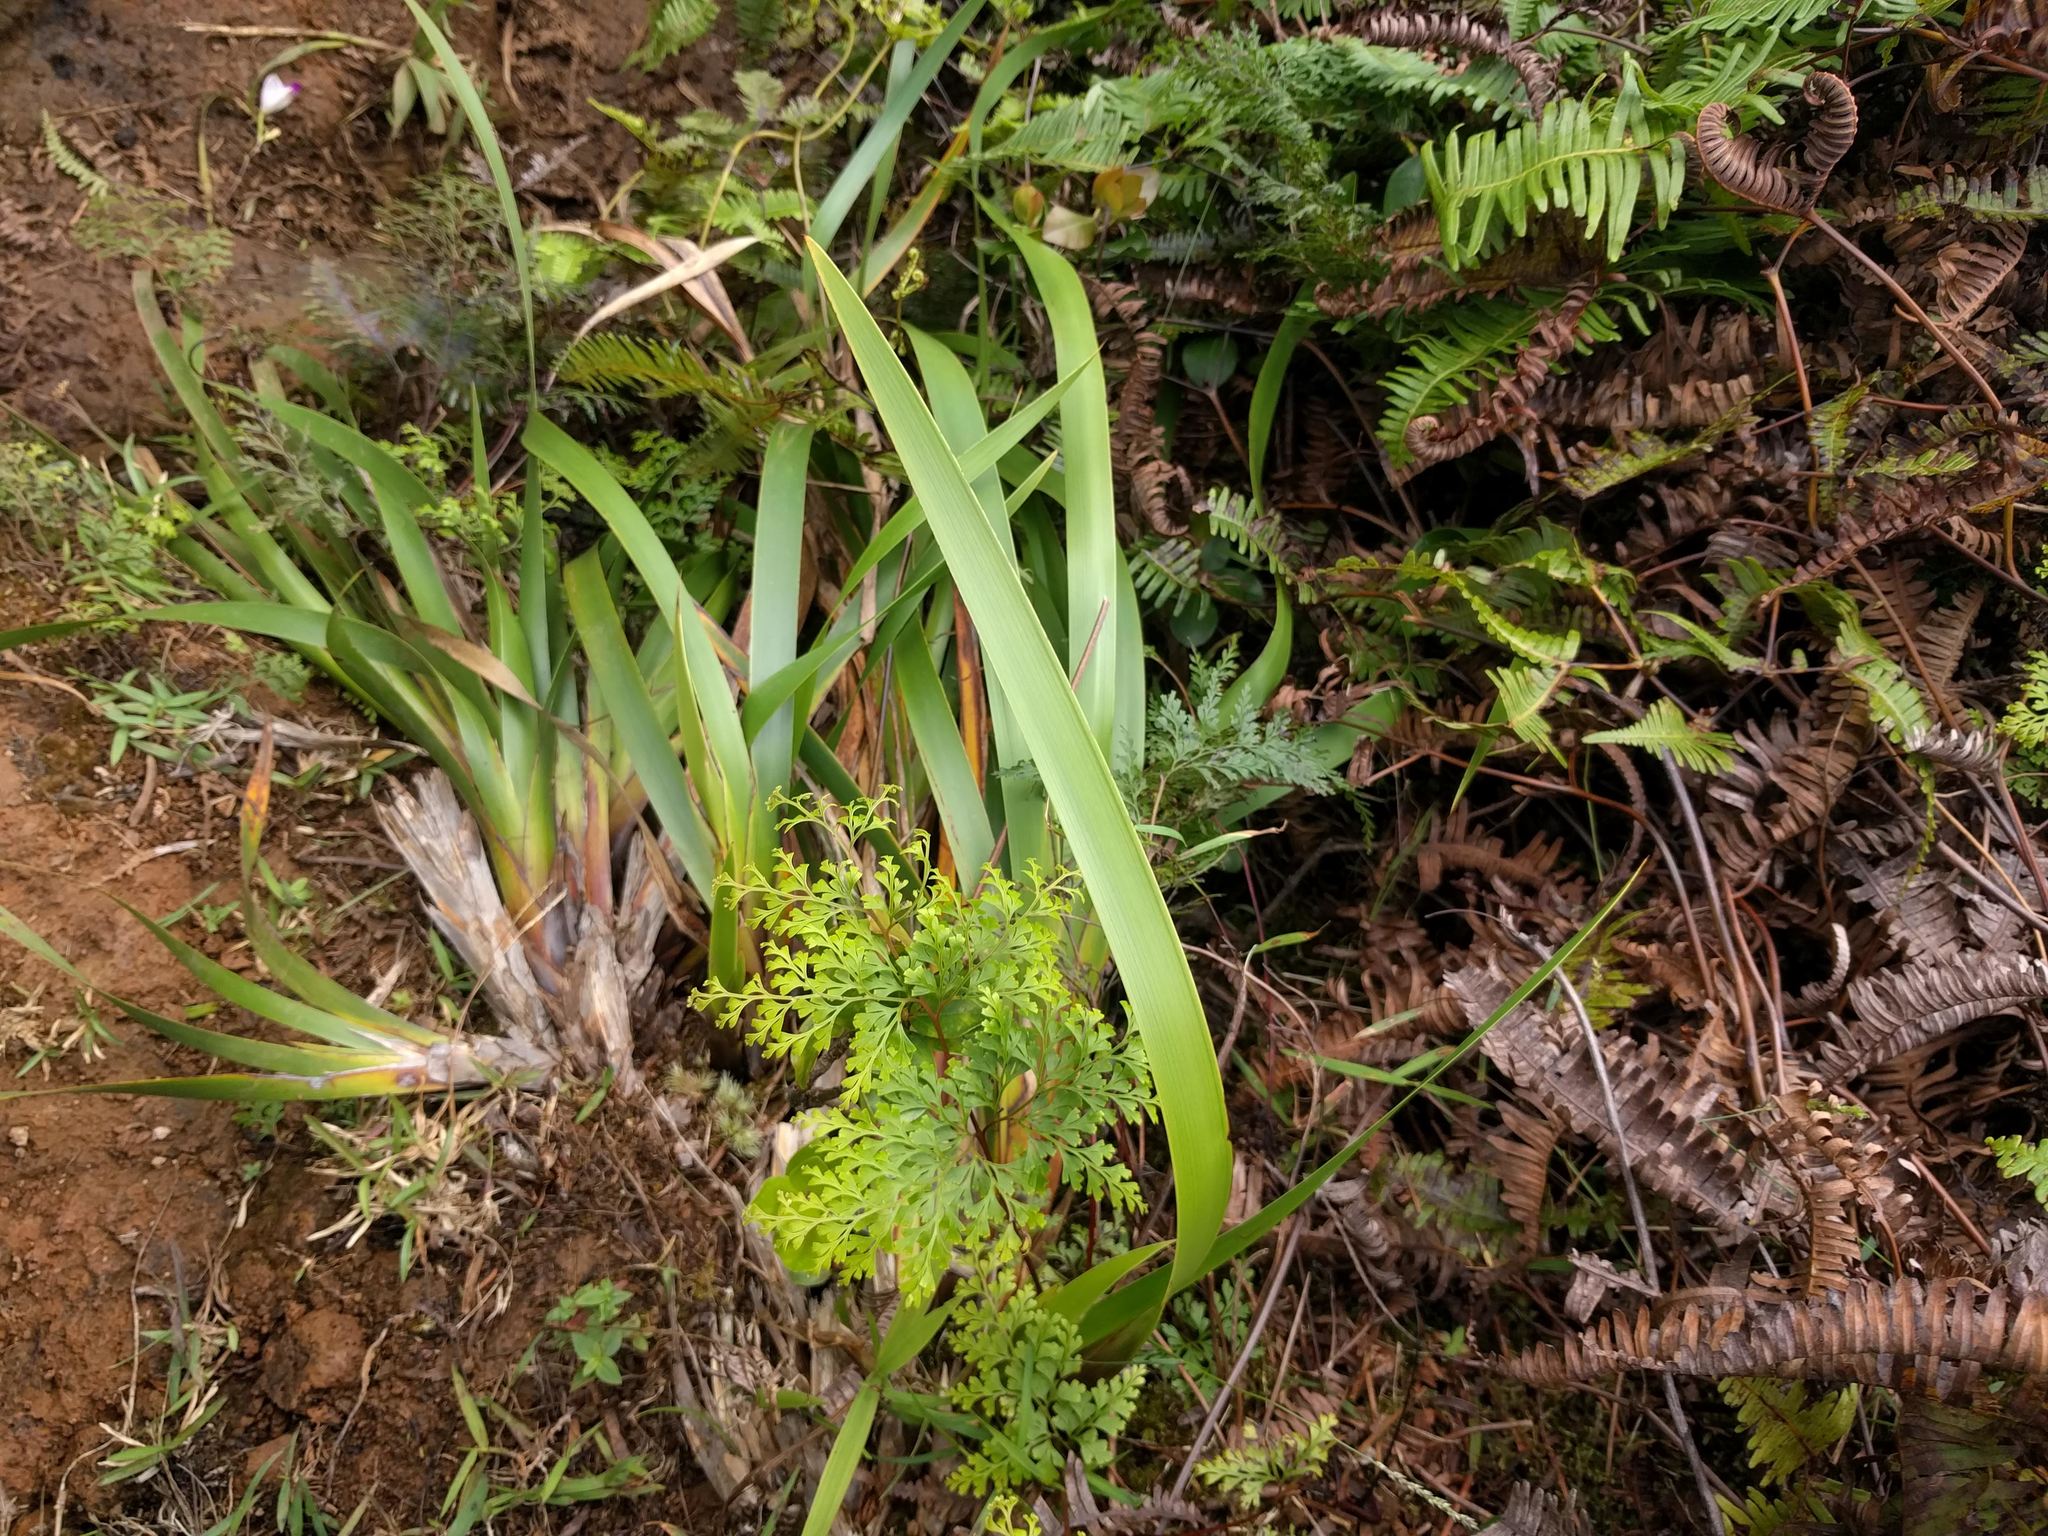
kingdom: Plantae
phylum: Tracheophyta
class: Liliopsida
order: Poales
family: Cyperaceae
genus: Machaerina
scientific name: Machaerina angustifolia
